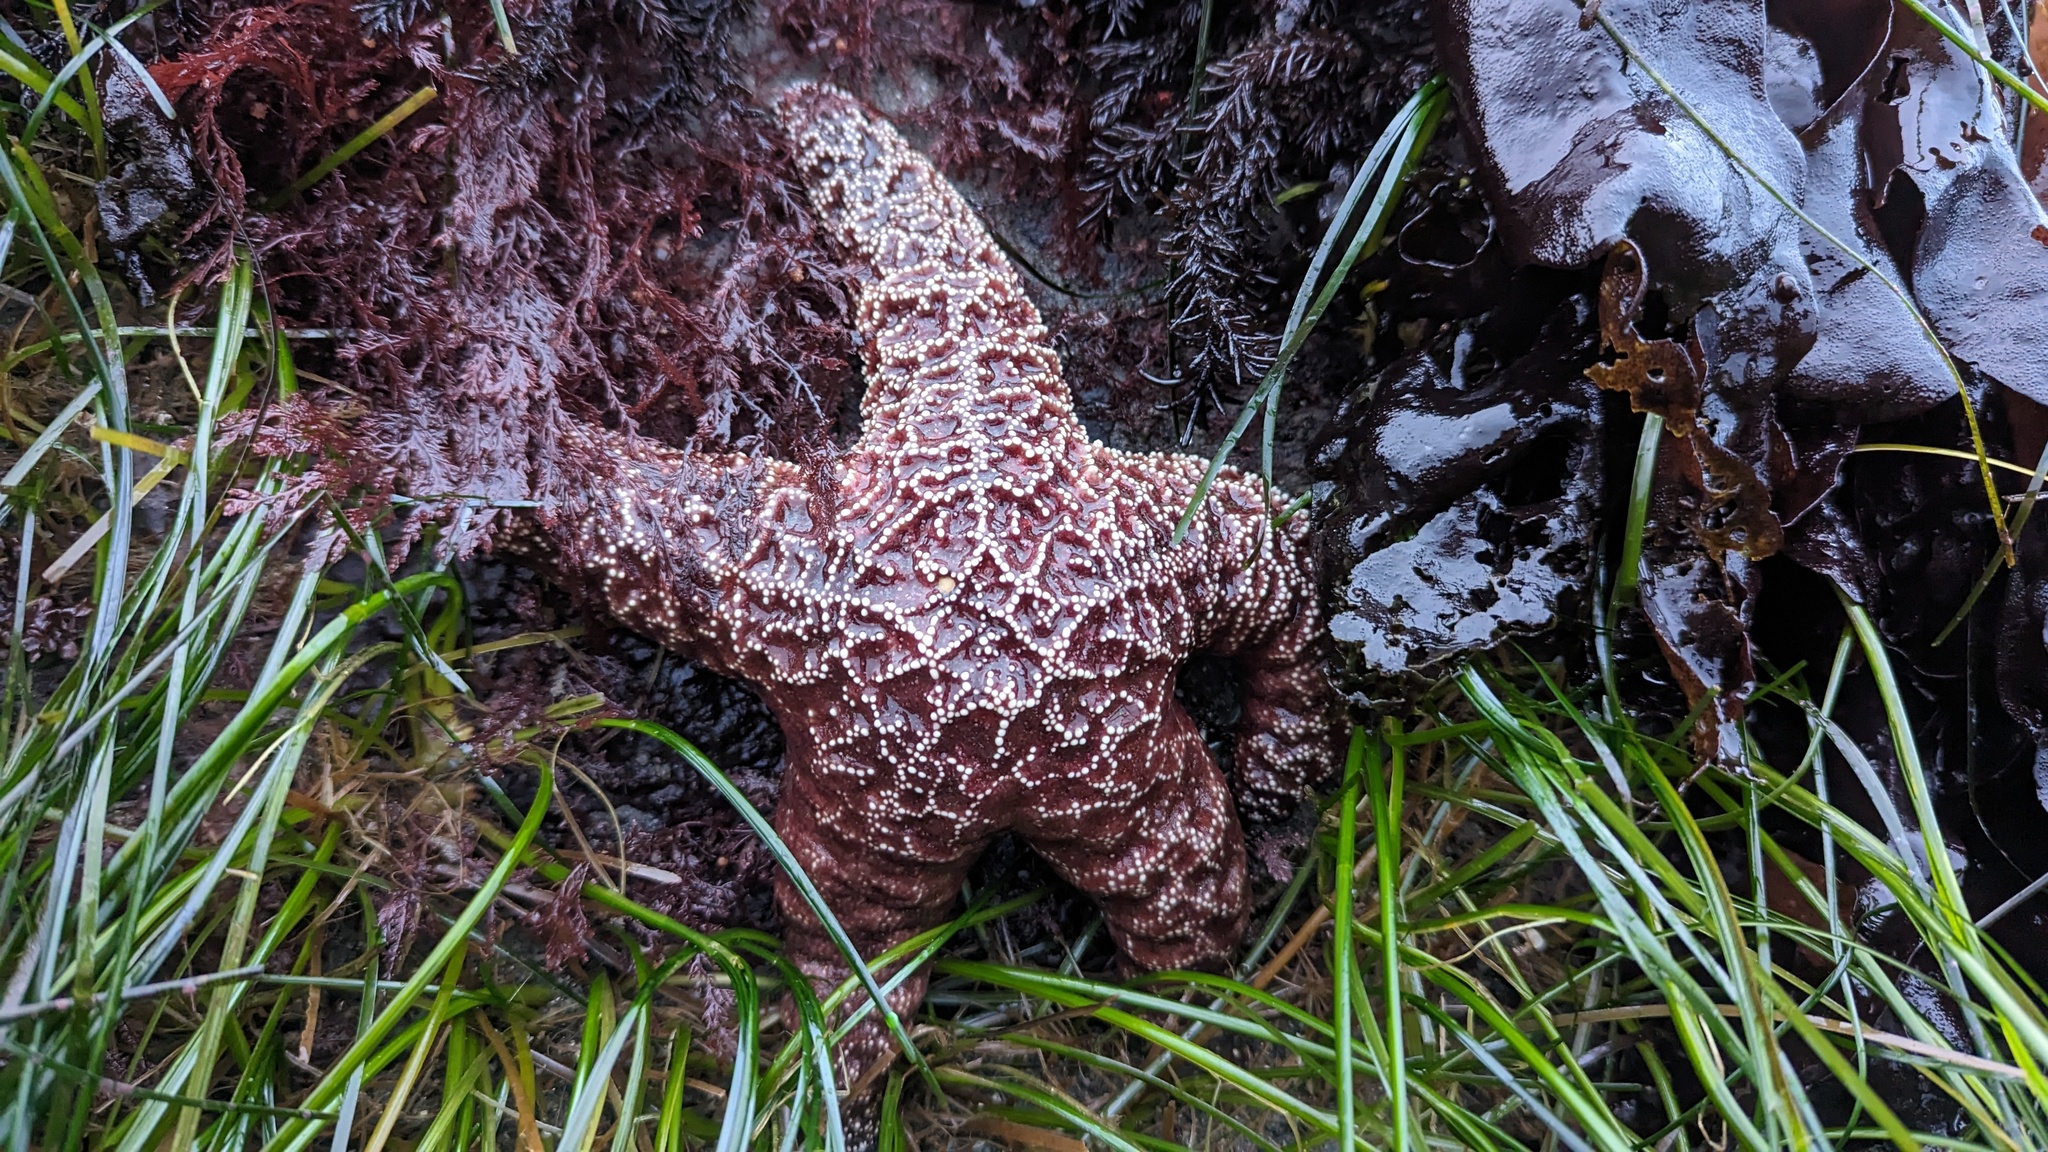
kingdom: Animalia
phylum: Echinodermata
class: Asteroidea
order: Forcipulatida
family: Asteriidae
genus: Pisaster
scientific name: Pisaster ochraceus
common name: Ochre stars
